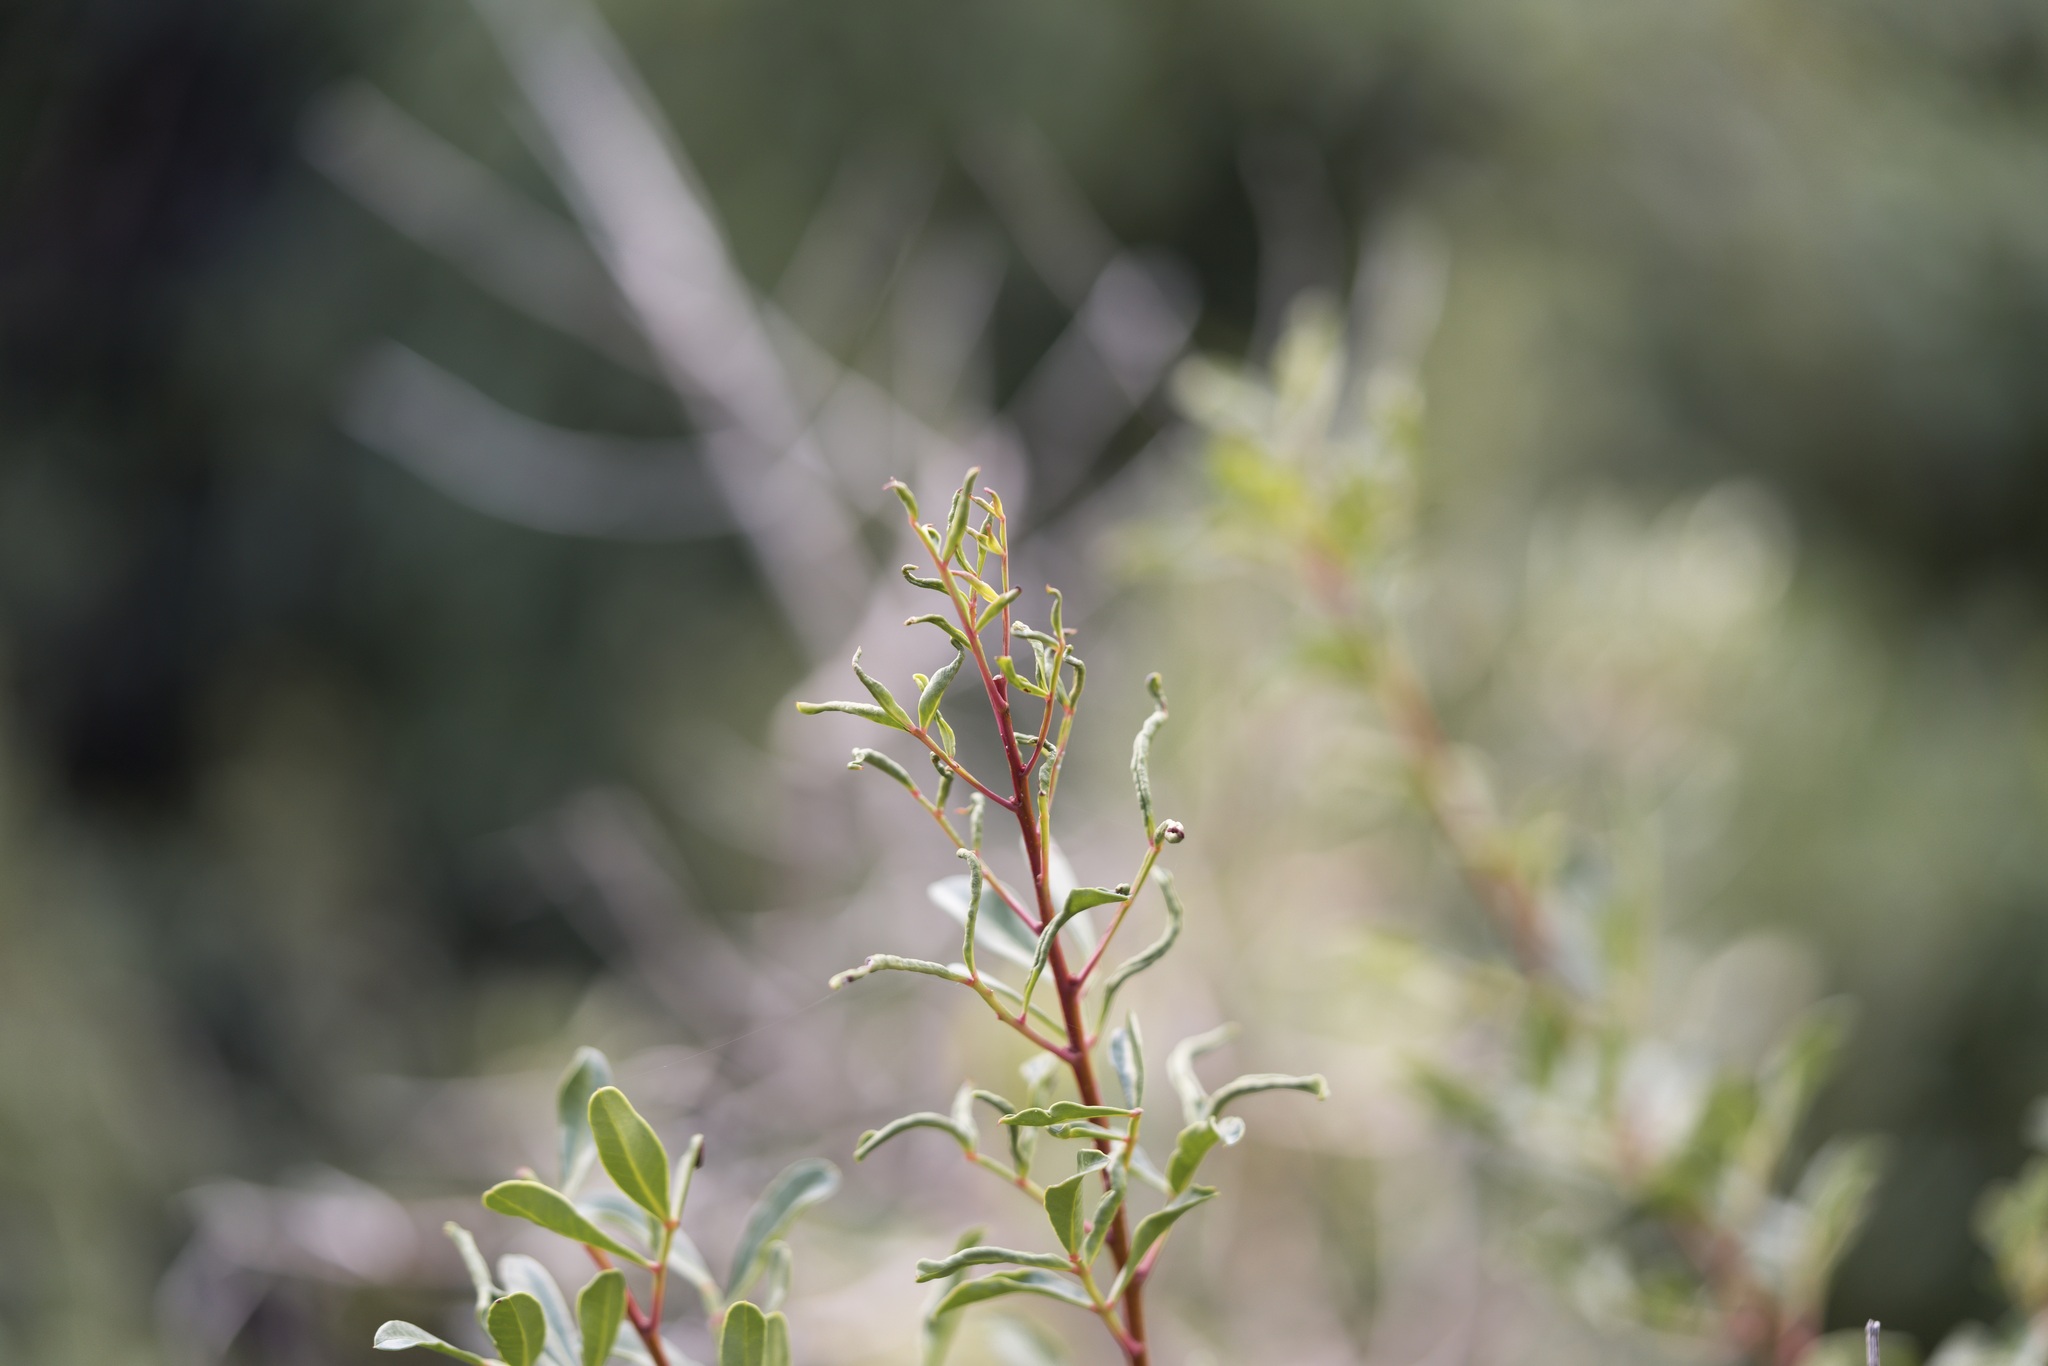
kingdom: Animalia
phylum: Arthropoda
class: Arachnida
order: Trombidiformes
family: Eriophyidae
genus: Aceria
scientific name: Aceria stefanii
